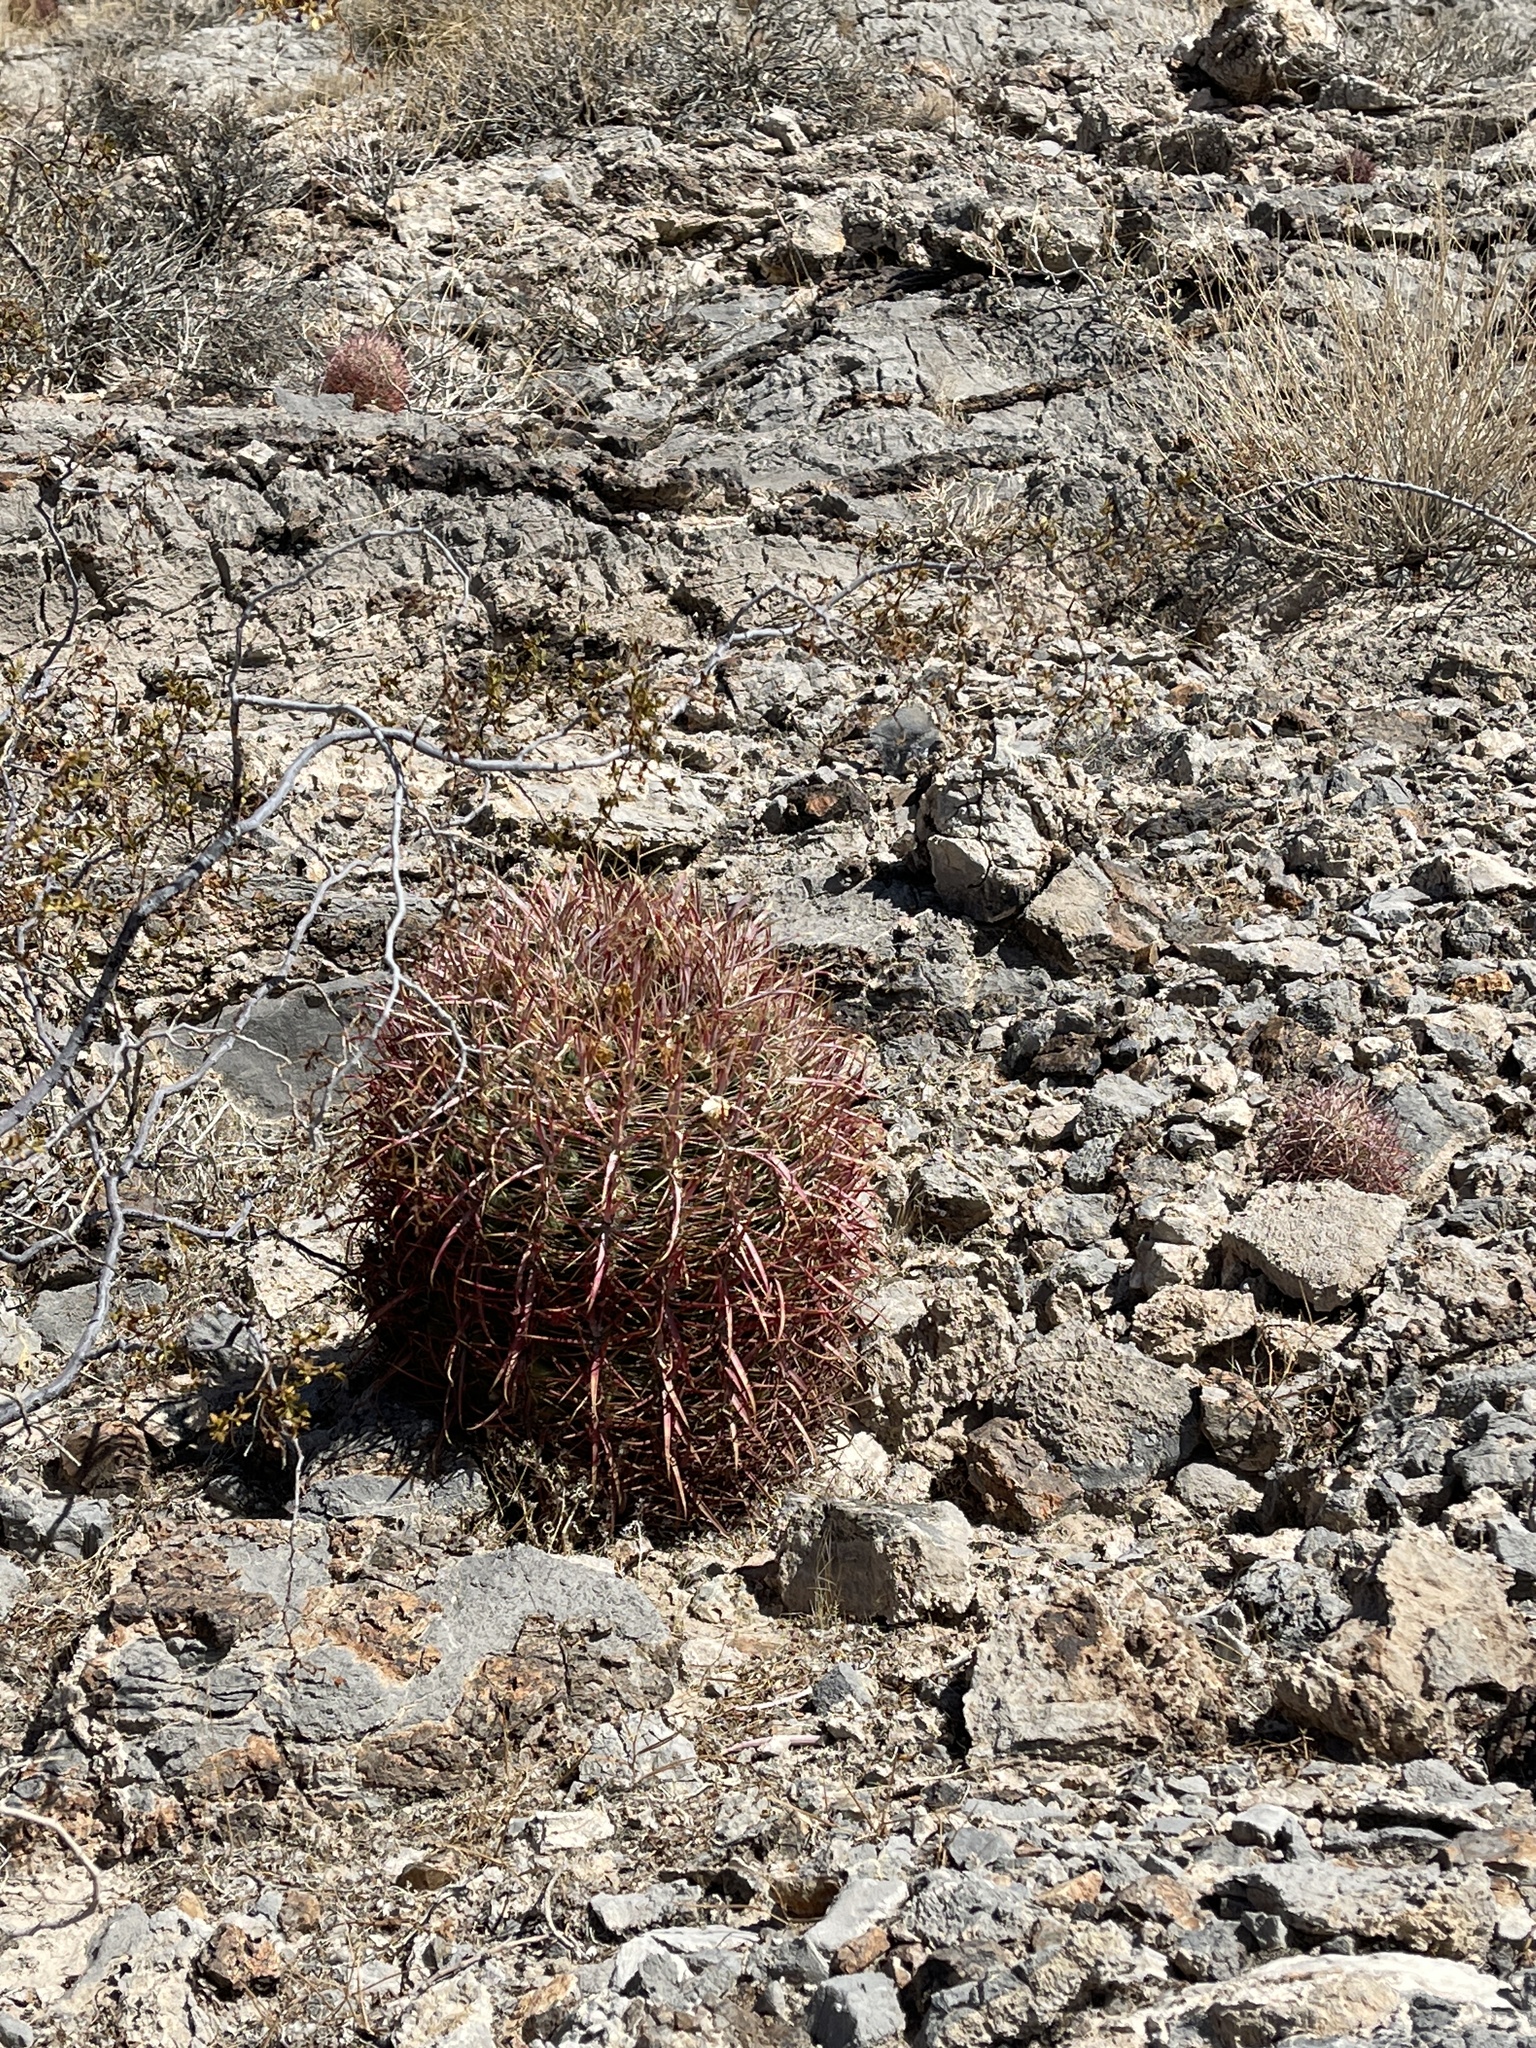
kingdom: Plantae
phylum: Tracheophyta
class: Magnoliopsida
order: Caryophyllales
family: Cactaceae
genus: Ferocactus
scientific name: Ferocactus cylindraceus
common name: California barrel cactus
